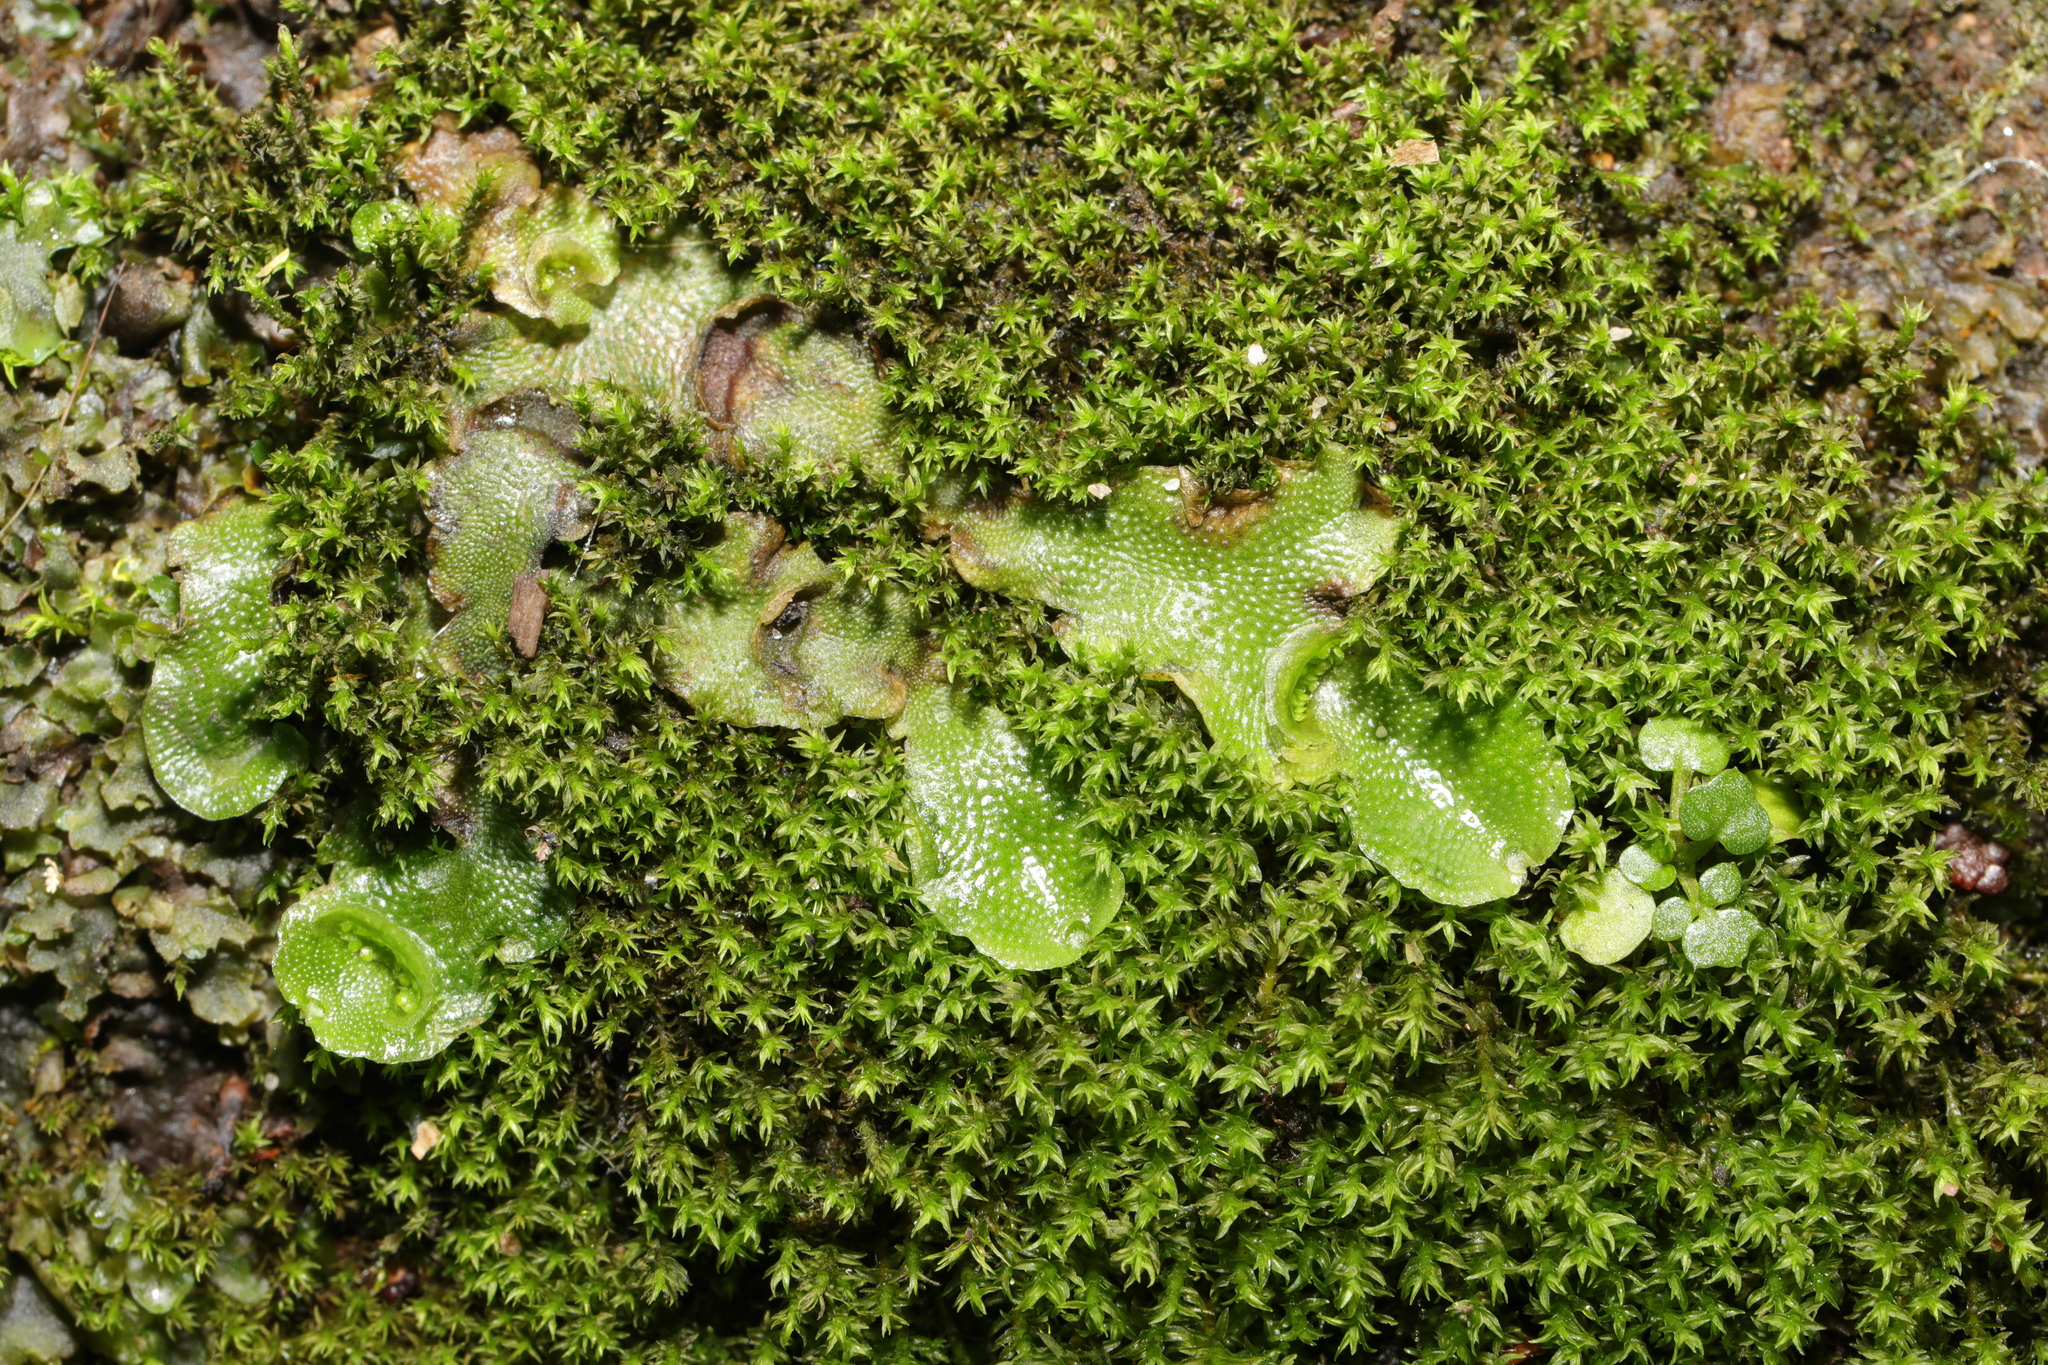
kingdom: Plantae
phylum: Marchantiophyta
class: Marchantiopsida
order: Lunulariales
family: Lunulariaceae
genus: Lunularia
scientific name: Lunularia cruciata
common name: Crescent-cup liverwort
